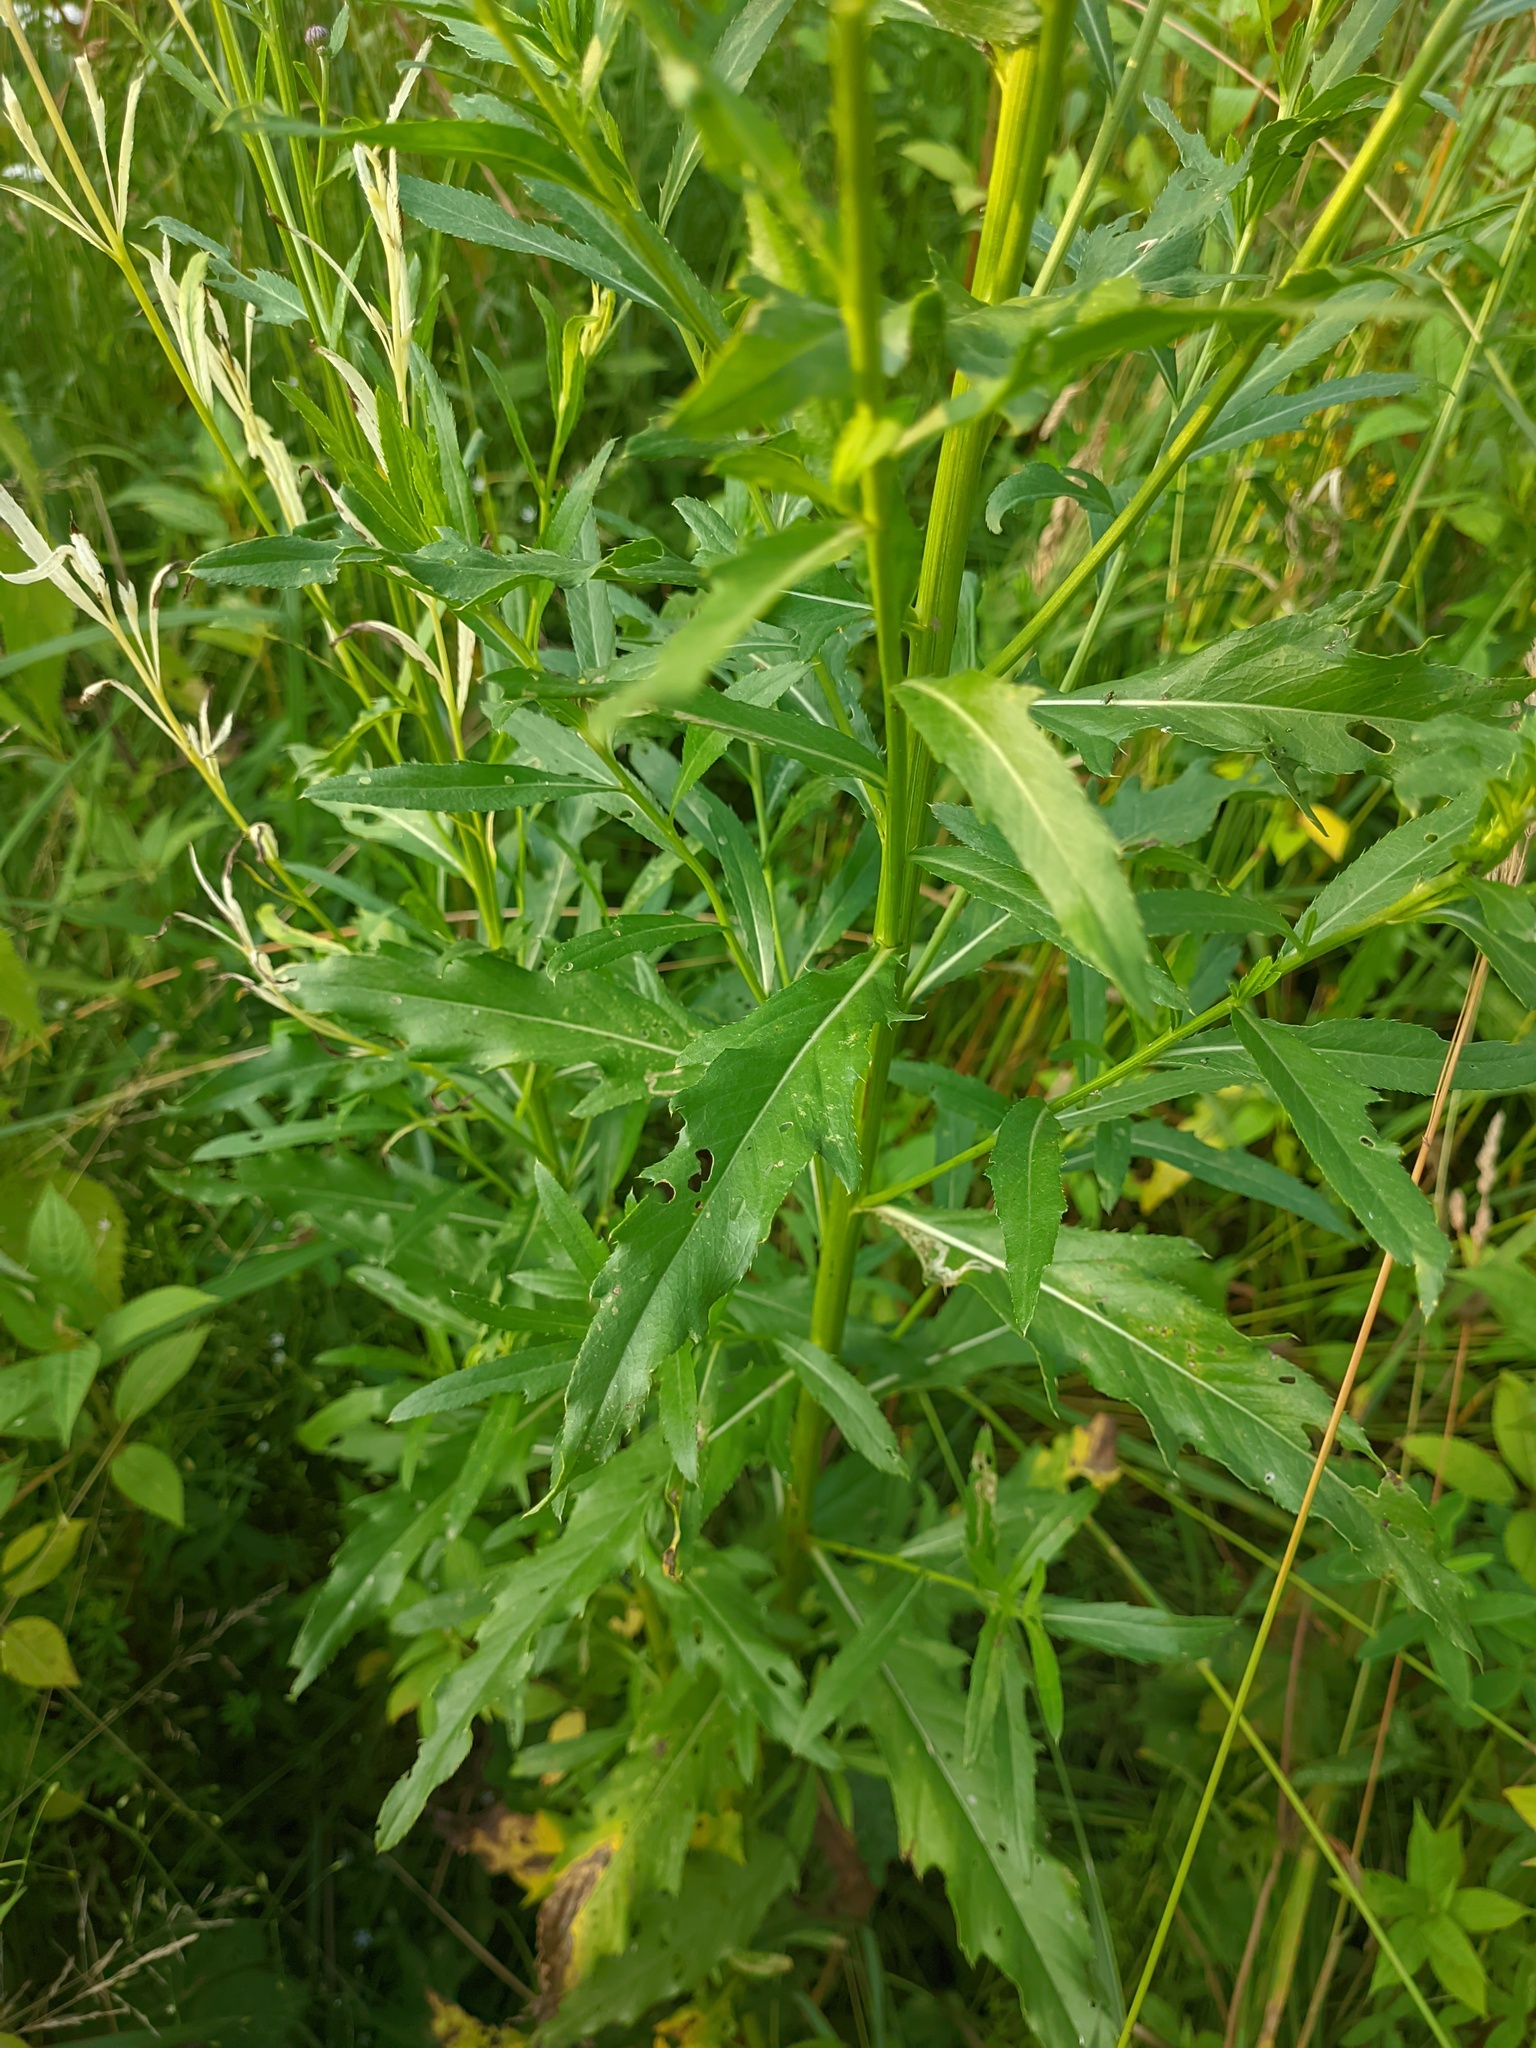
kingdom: Plantae
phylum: Tracheophyta
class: Magnoliopsida
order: Asterales
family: Asteraceae
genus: Cirsium
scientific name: Cirsium arvense
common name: Creeping thistle
